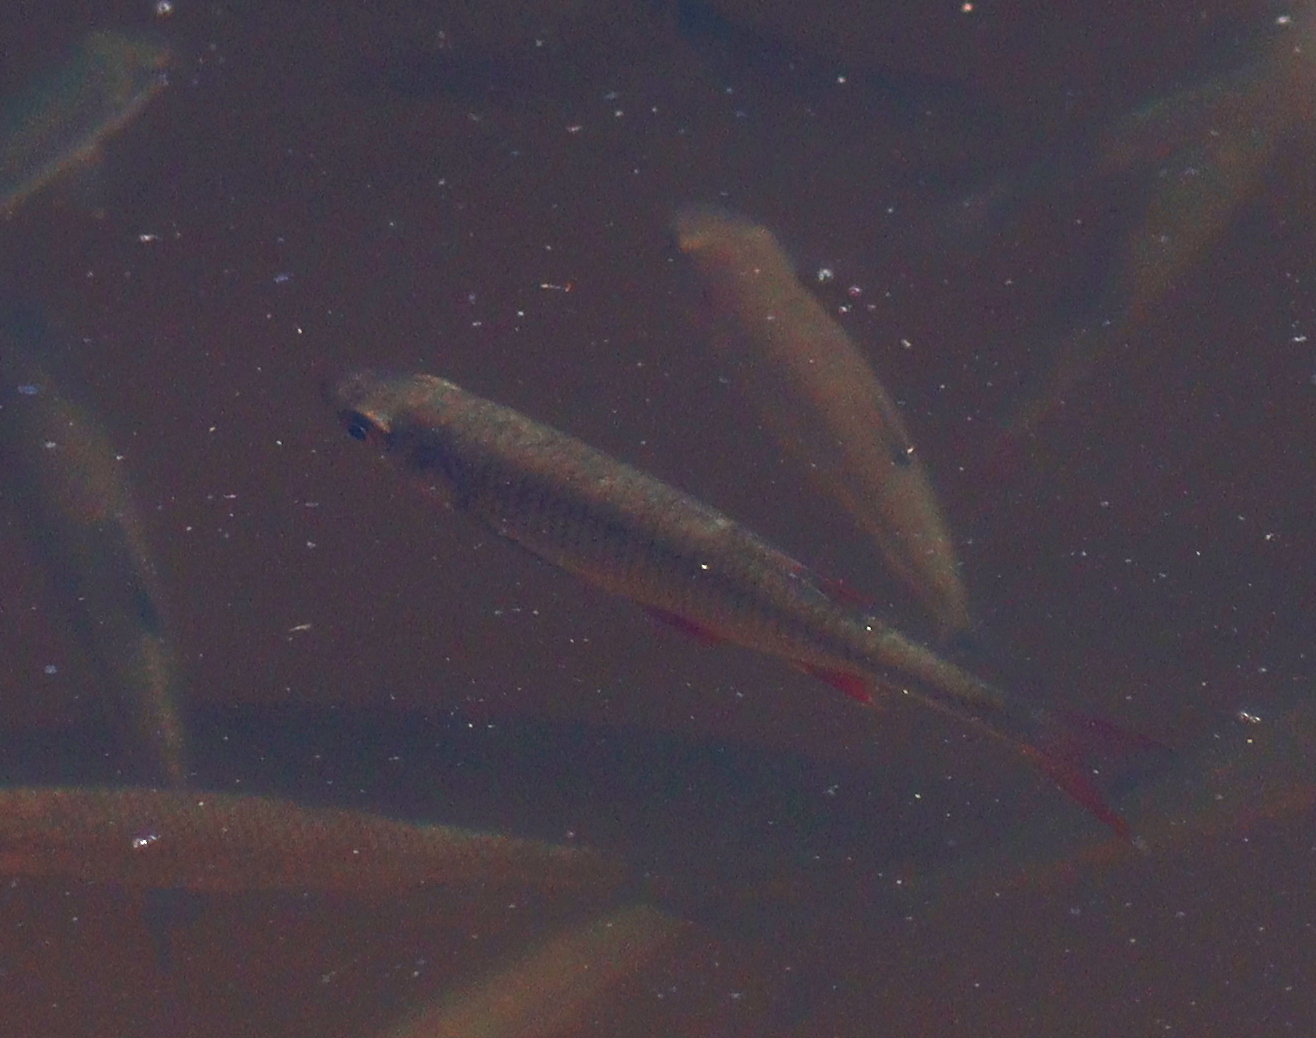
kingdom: Animalia
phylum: Chordata
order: Cypriniformes
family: Cyprinidae
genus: Scardinius
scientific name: Scardinius erythrophthalmus
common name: Rudd
